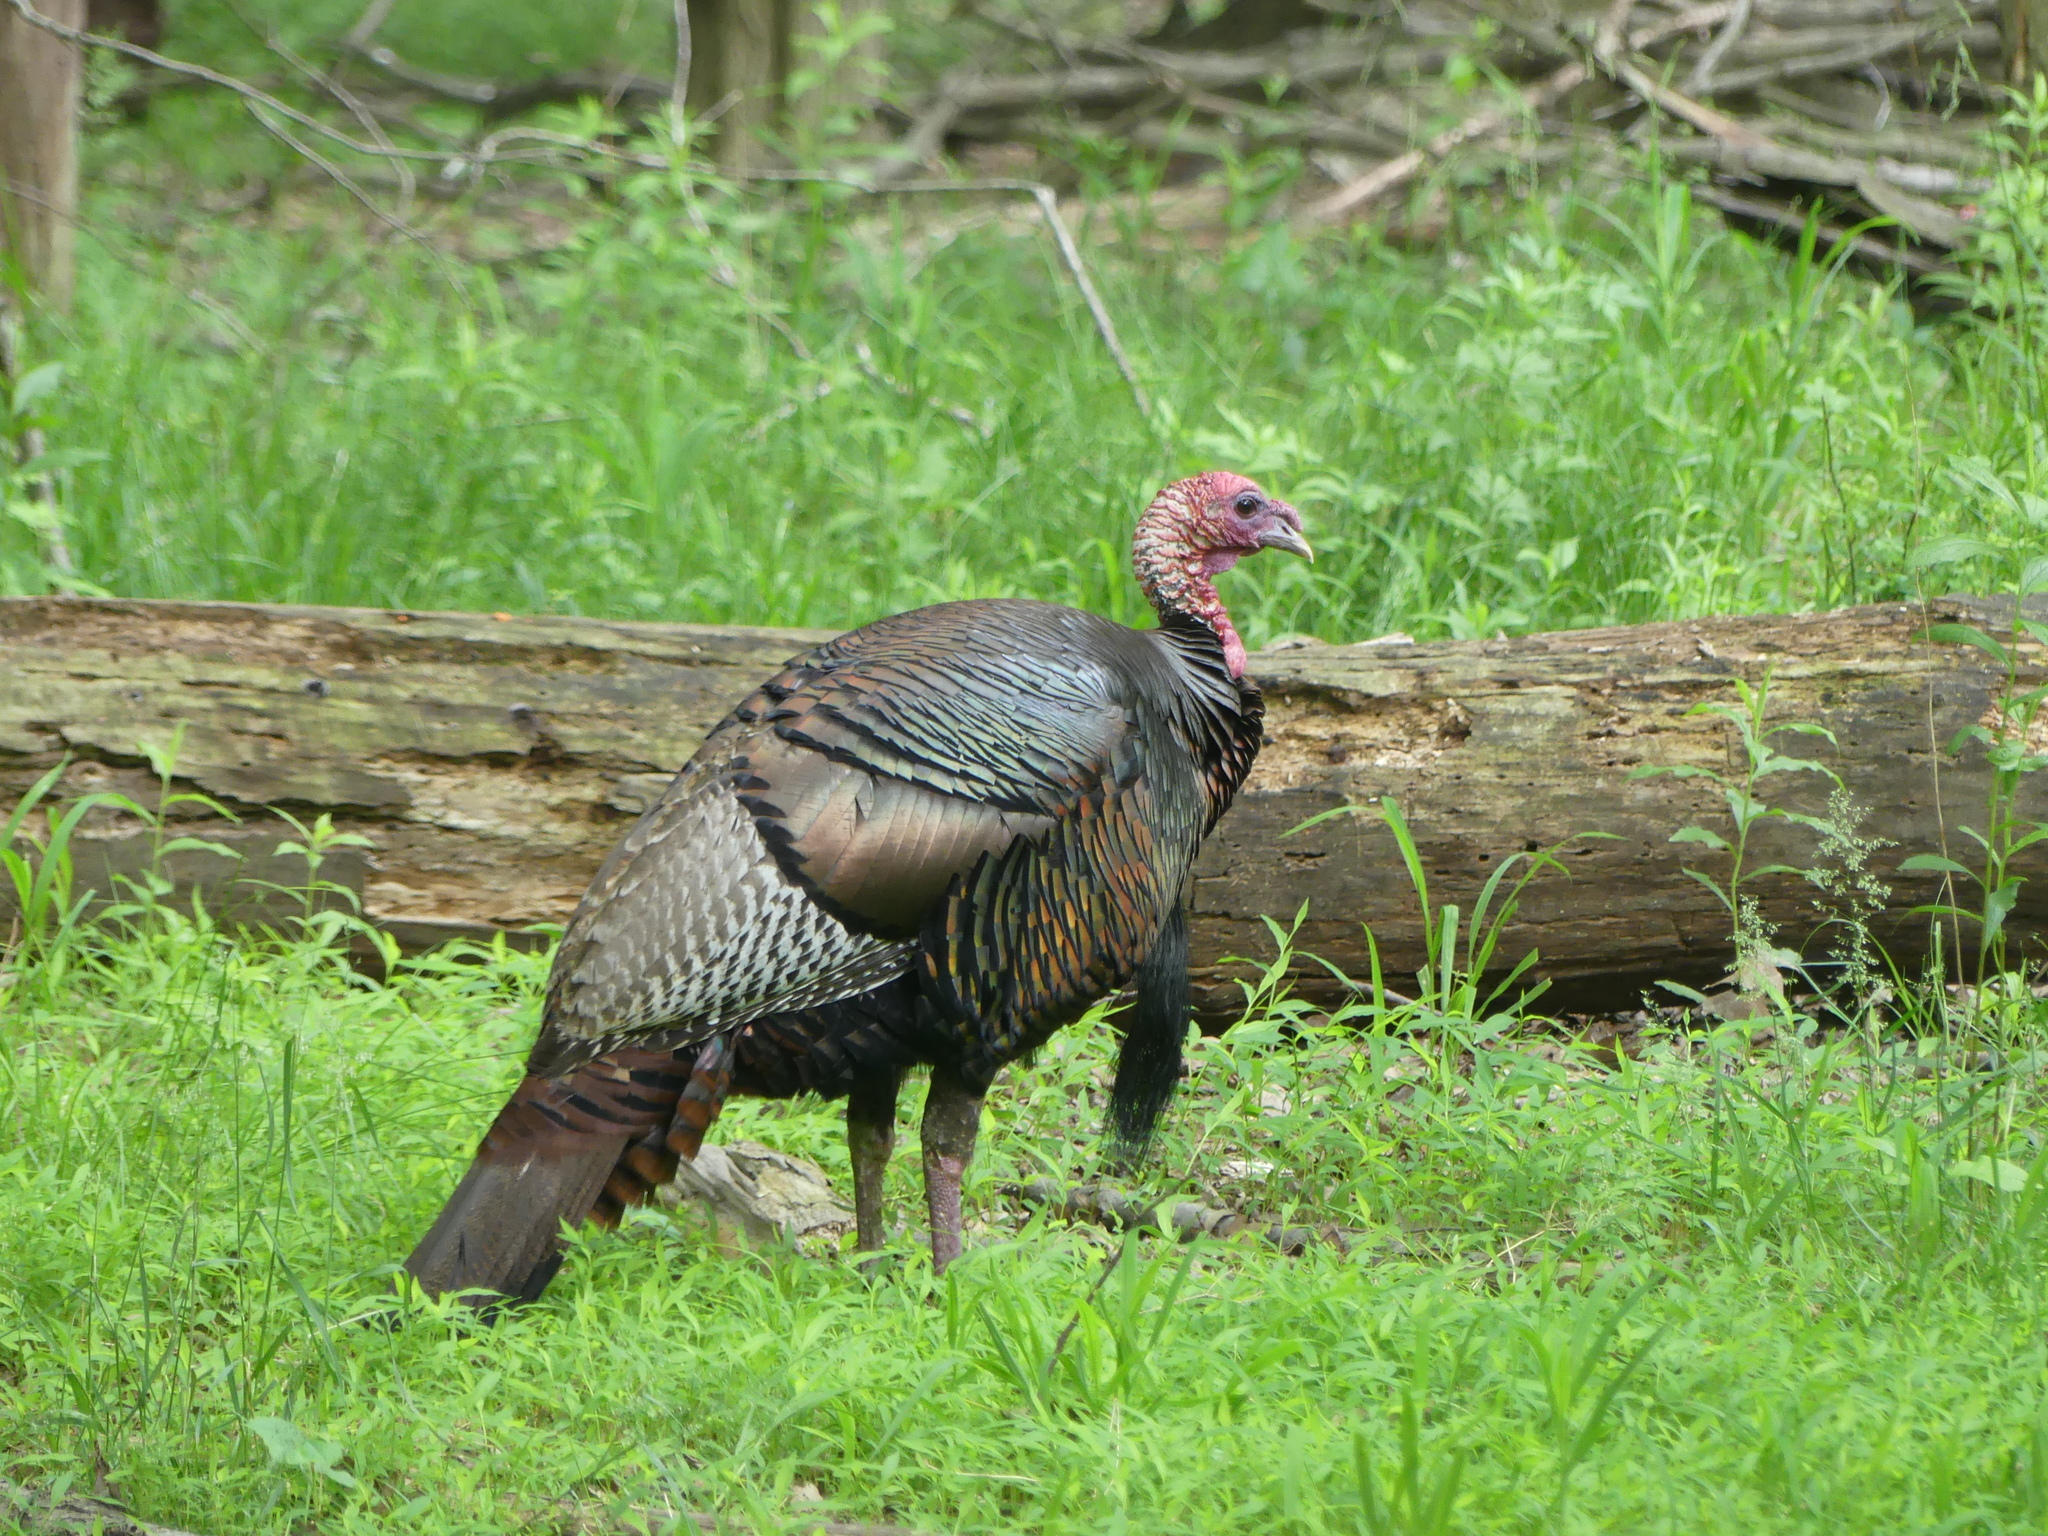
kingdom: Animalia
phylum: Chordata
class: Aves
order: Galliformes
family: Phasianidae
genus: Meleagris
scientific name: Meleagris gallopavo
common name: Wild turkey
